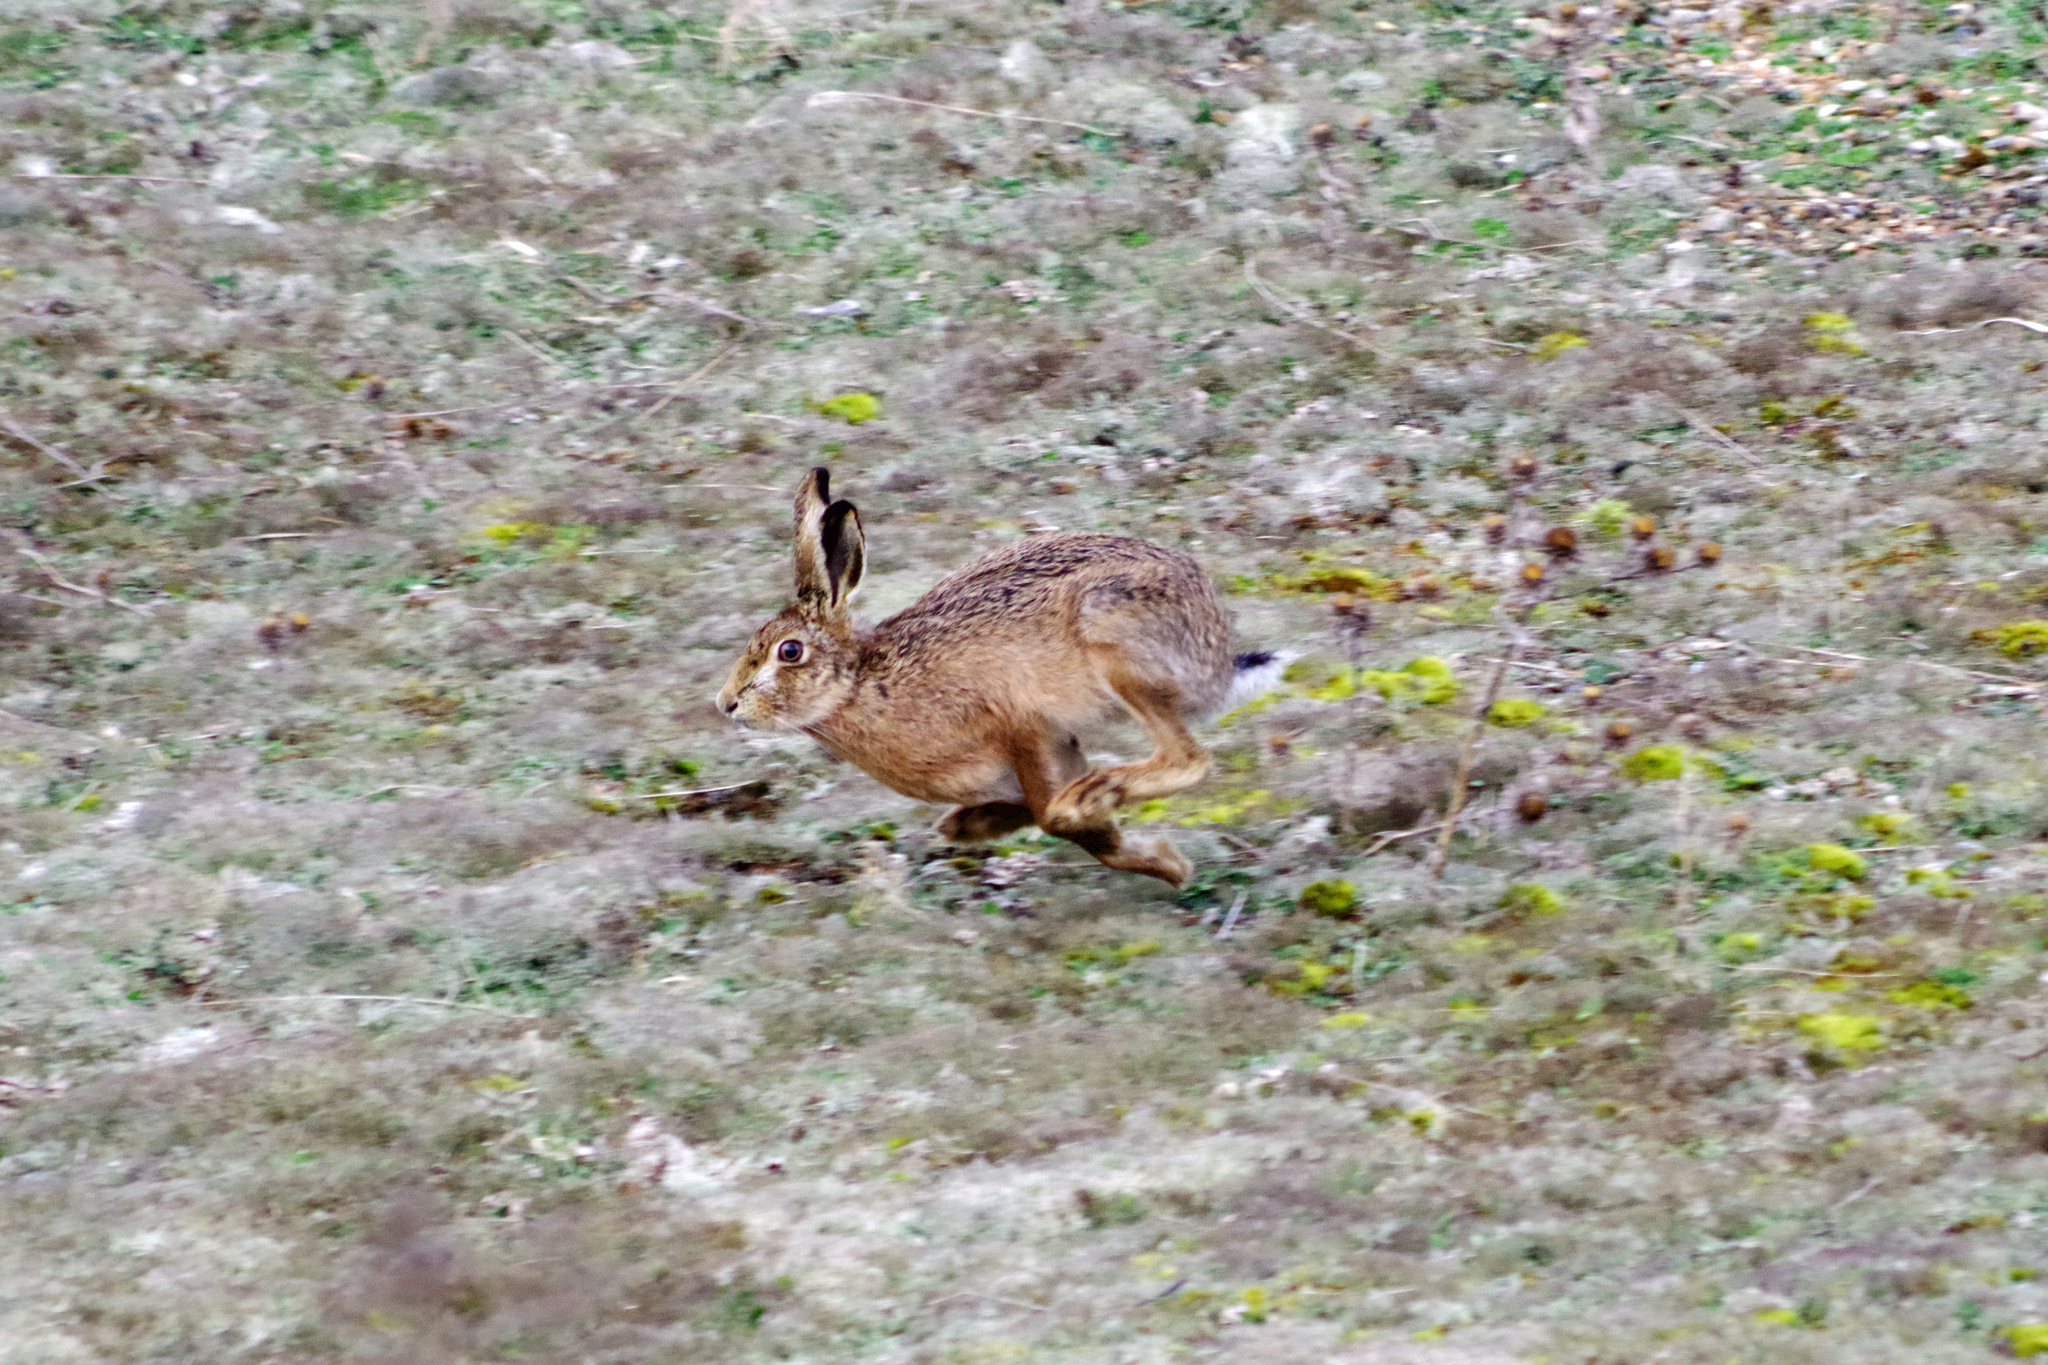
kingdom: Animalia
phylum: Chordata
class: Mammalia
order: Lagomorpha
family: Leporidae
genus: Lepus
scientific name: Lepus europaeus
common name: European hare
